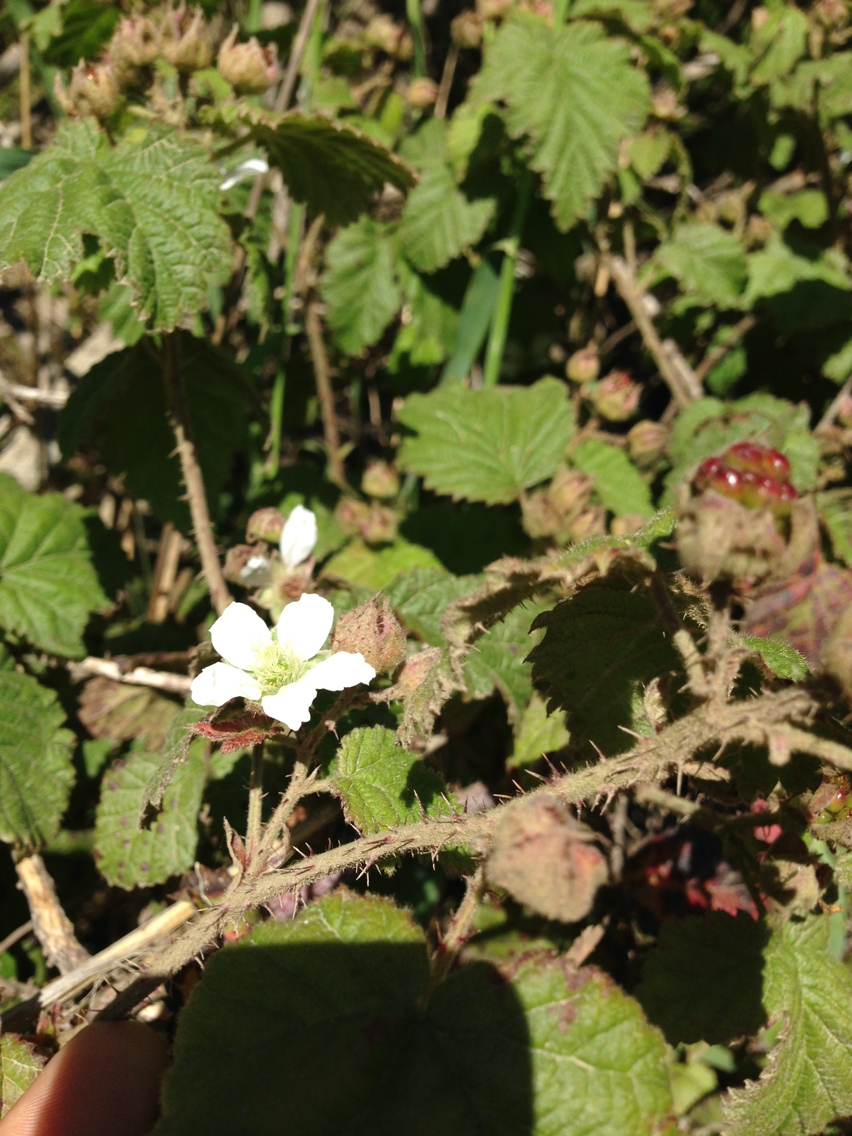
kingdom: Plantae
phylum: Tracheophyta
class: Magnoliopsida
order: Rosales
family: Rosaceae
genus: Rubus
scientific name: Rubus ursinus
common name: Pacific blackberry
